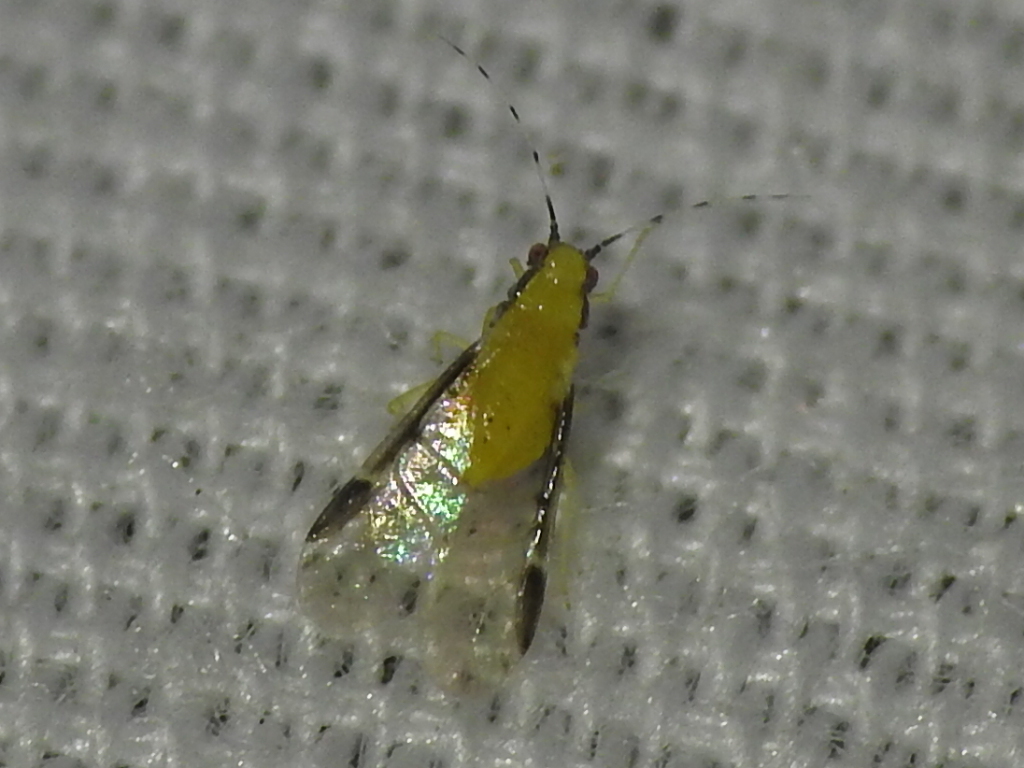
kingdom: Animalia
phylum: Arthropoda
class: Insecta
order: Hemiptera
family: Aphididae
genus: Monellia
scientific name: Monellia caryella
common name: Blackmargined aphid
